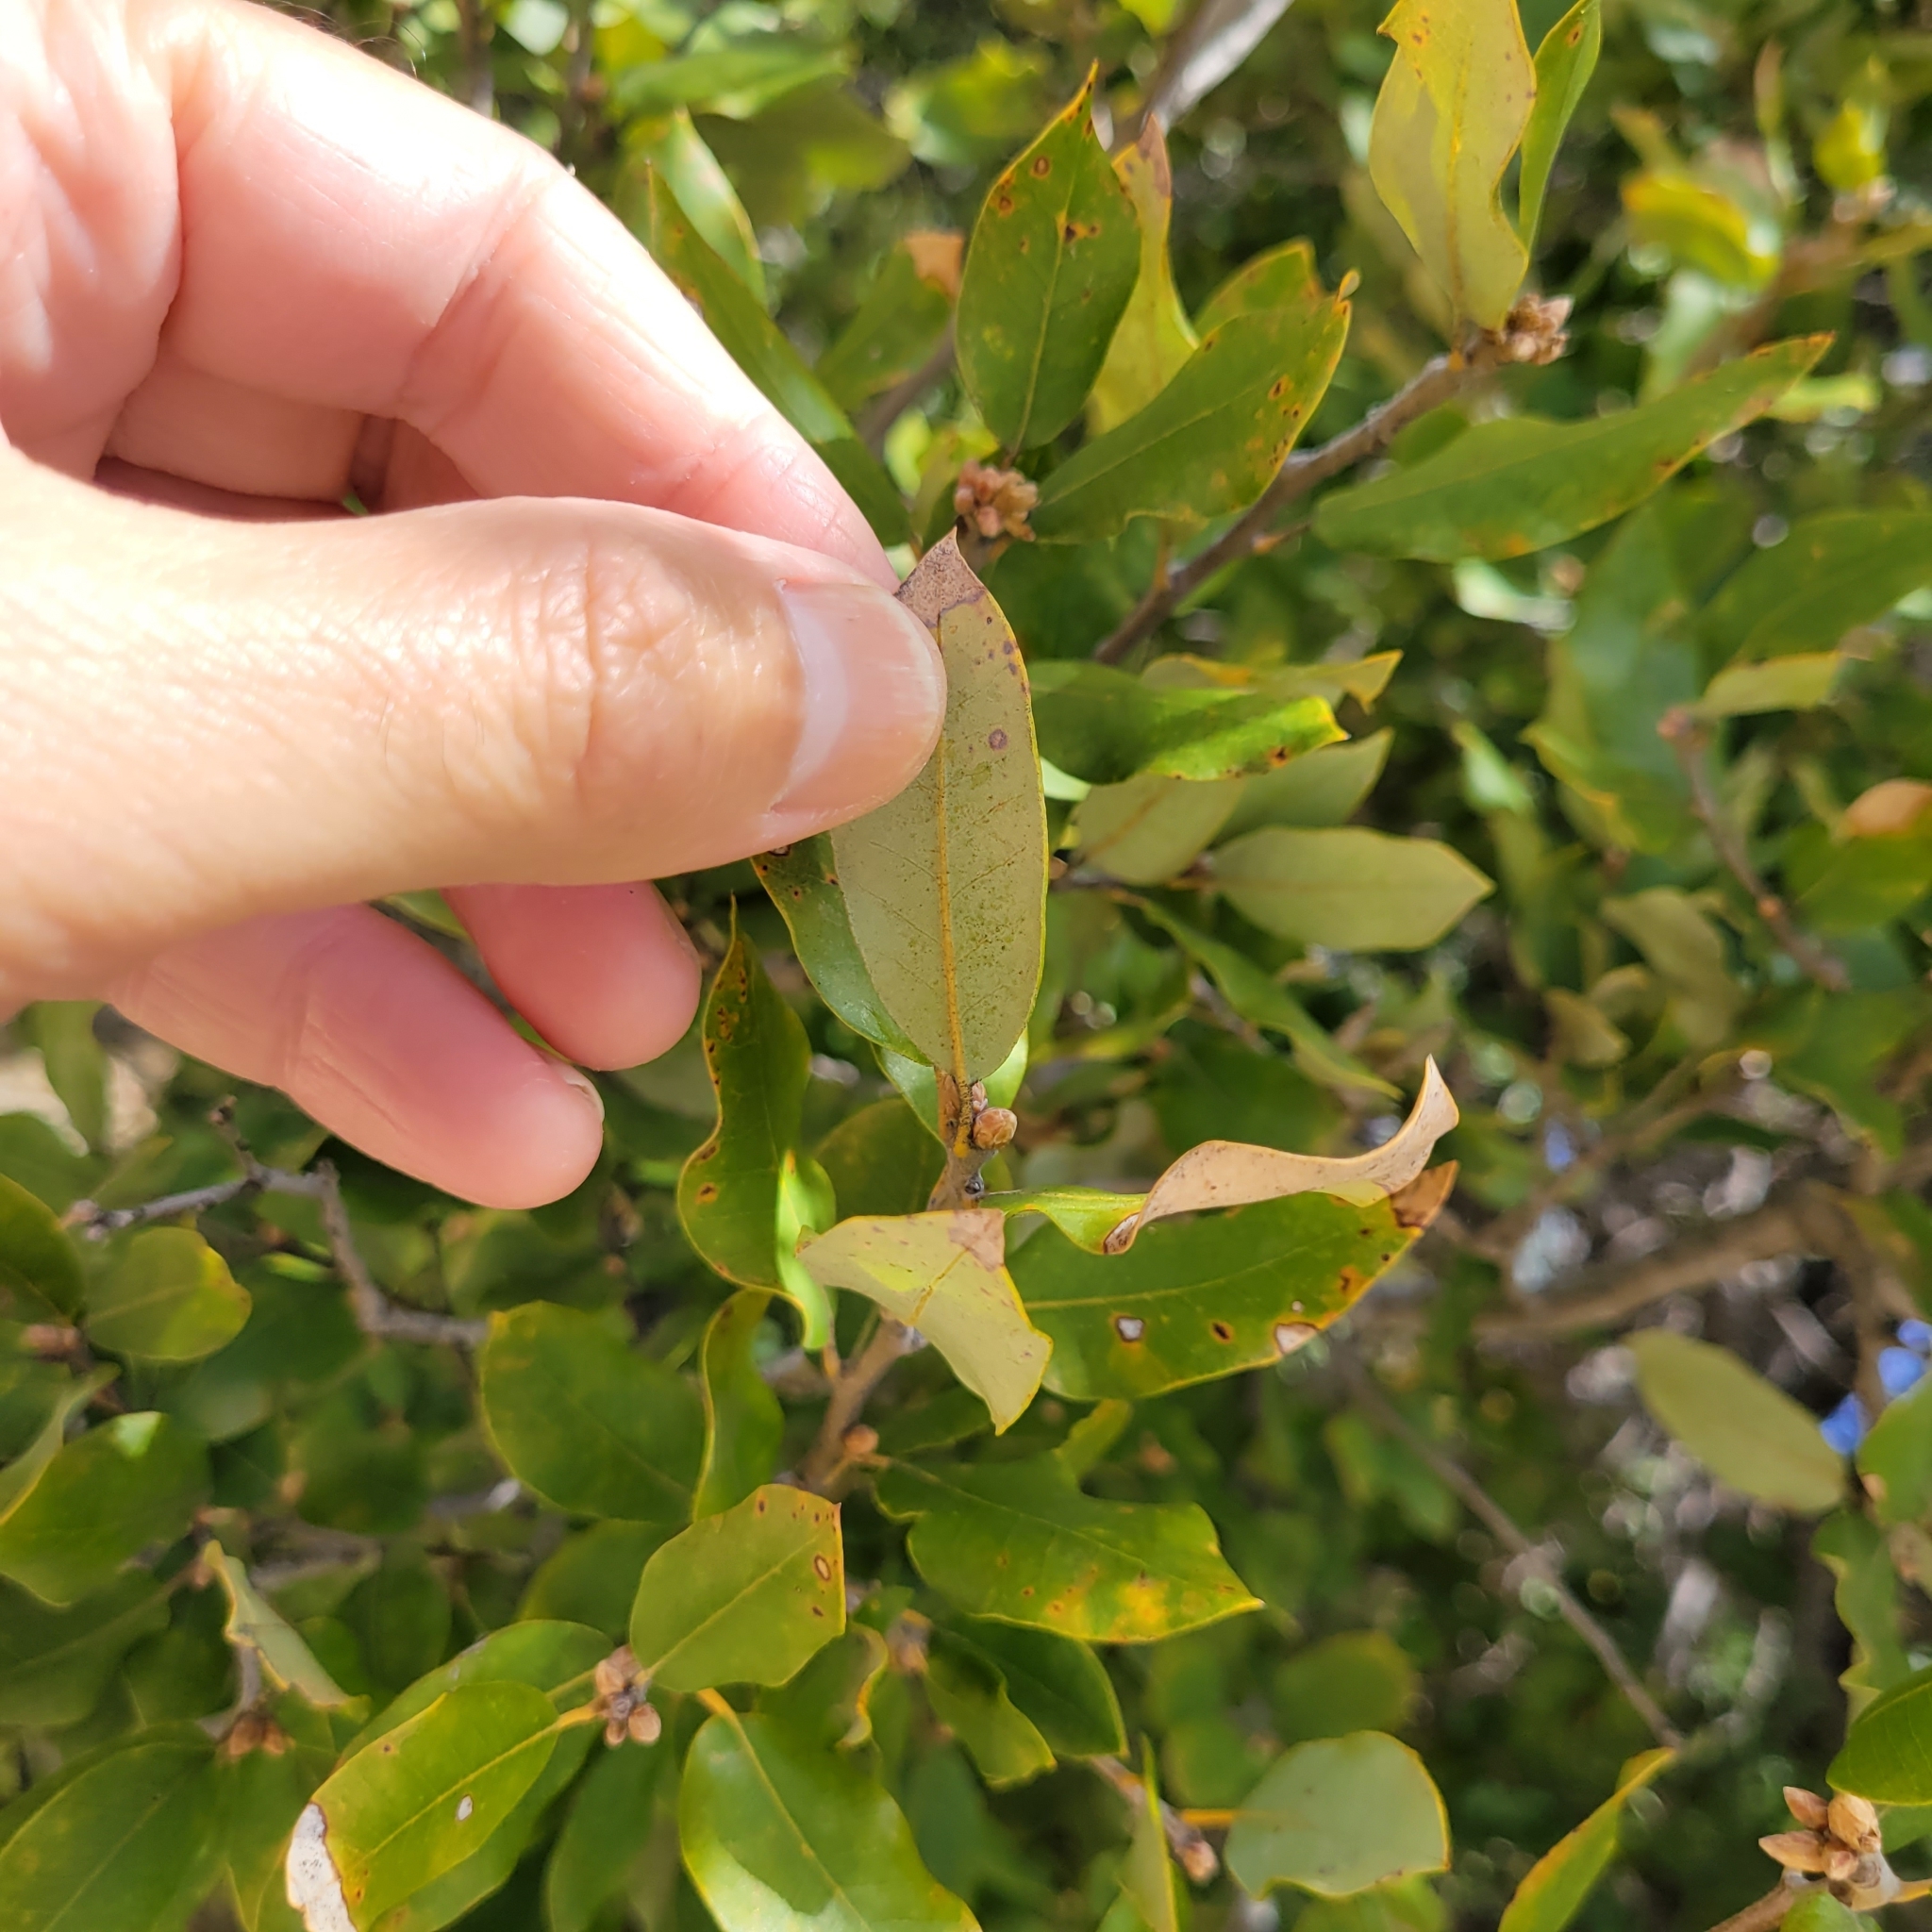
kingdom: Plantae
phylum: Tracheophyta
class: Magnoliopsida
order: Fagales
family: Fagaceae
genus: Quercus
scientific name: Quercus chrysolepis
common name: Canyon live oak
